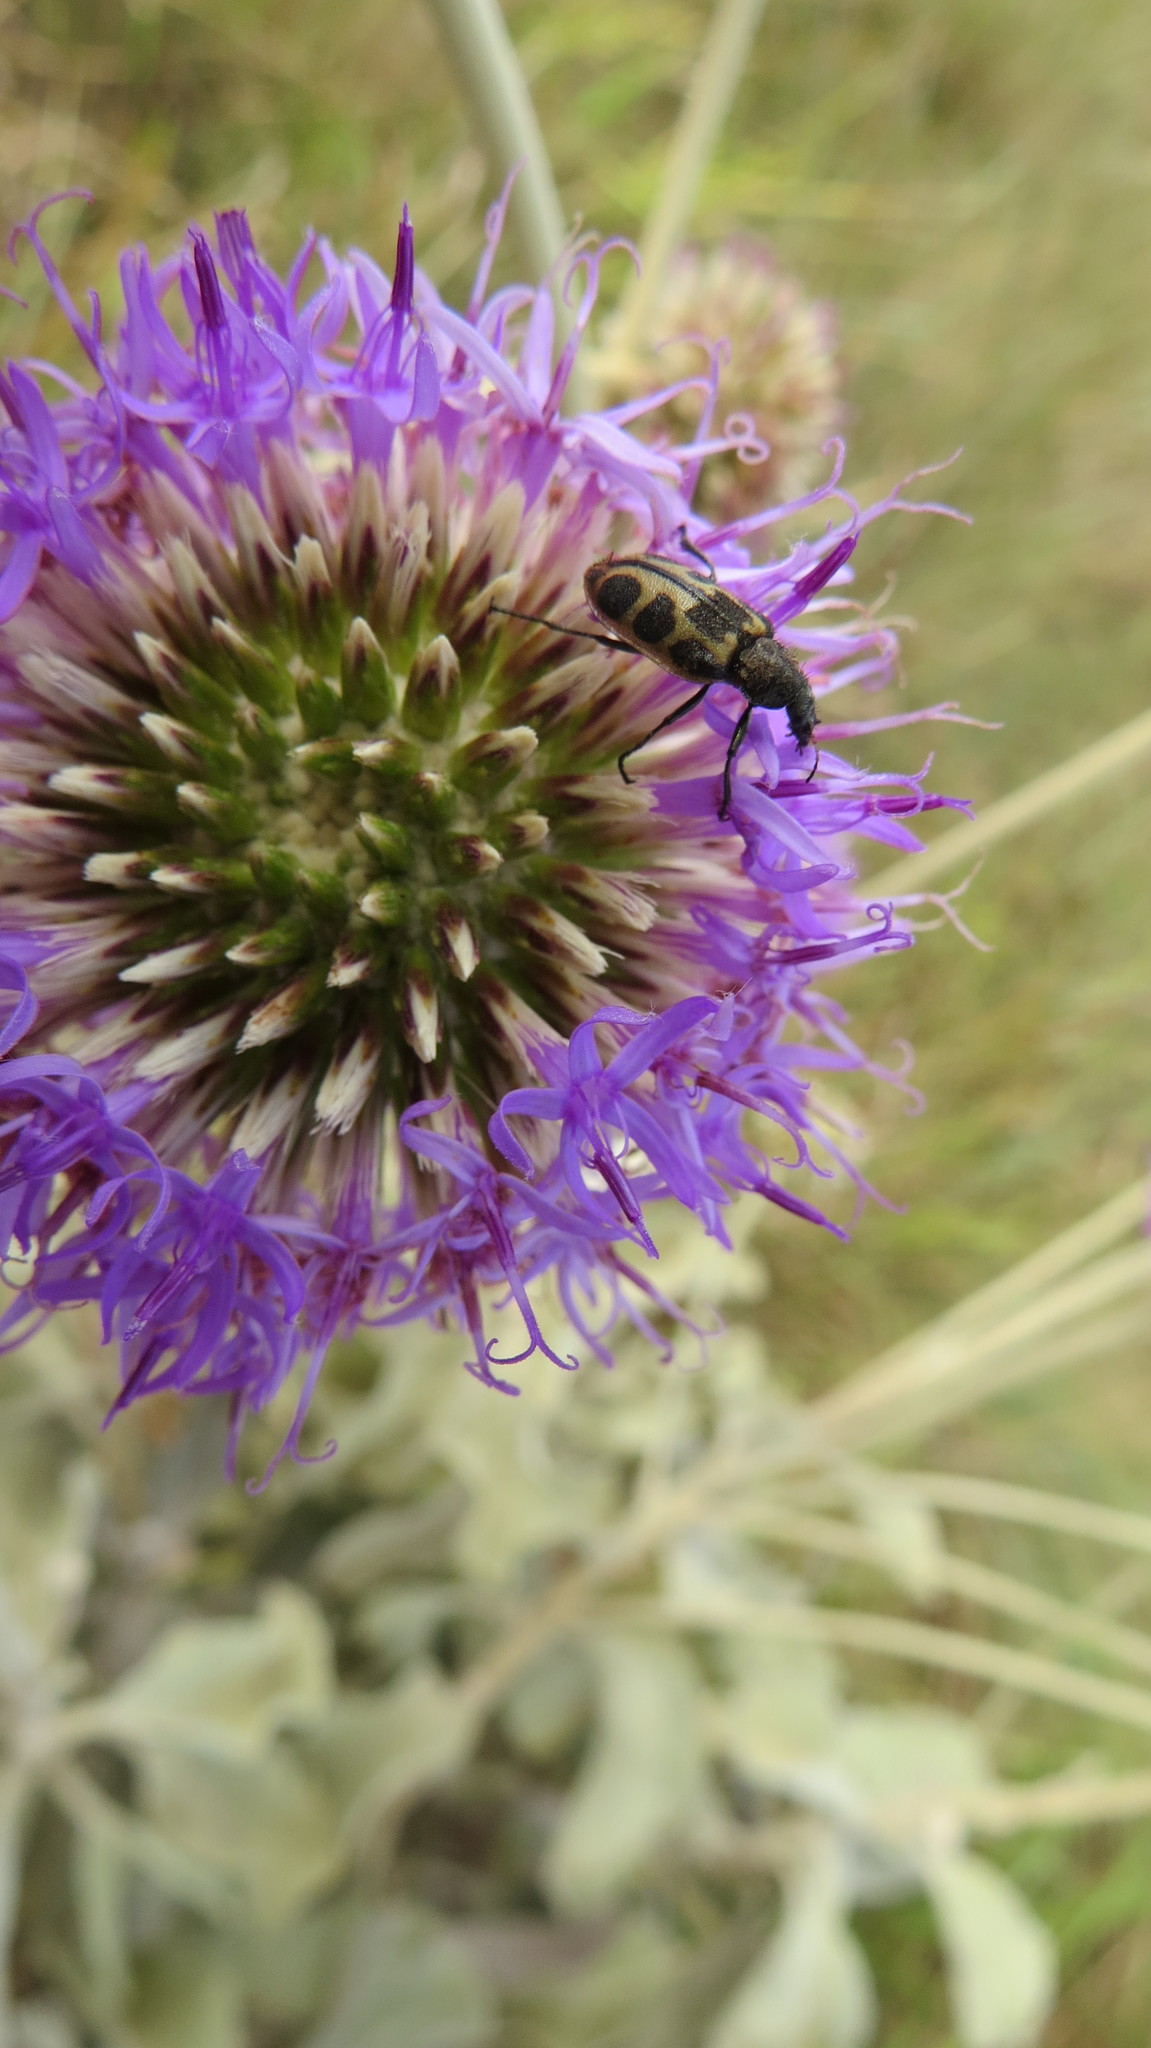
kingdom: Animalia
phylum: Arthropoda
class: Insecta
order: Coleoptera
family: Melyridae
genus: Astylus
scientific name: Astylus
